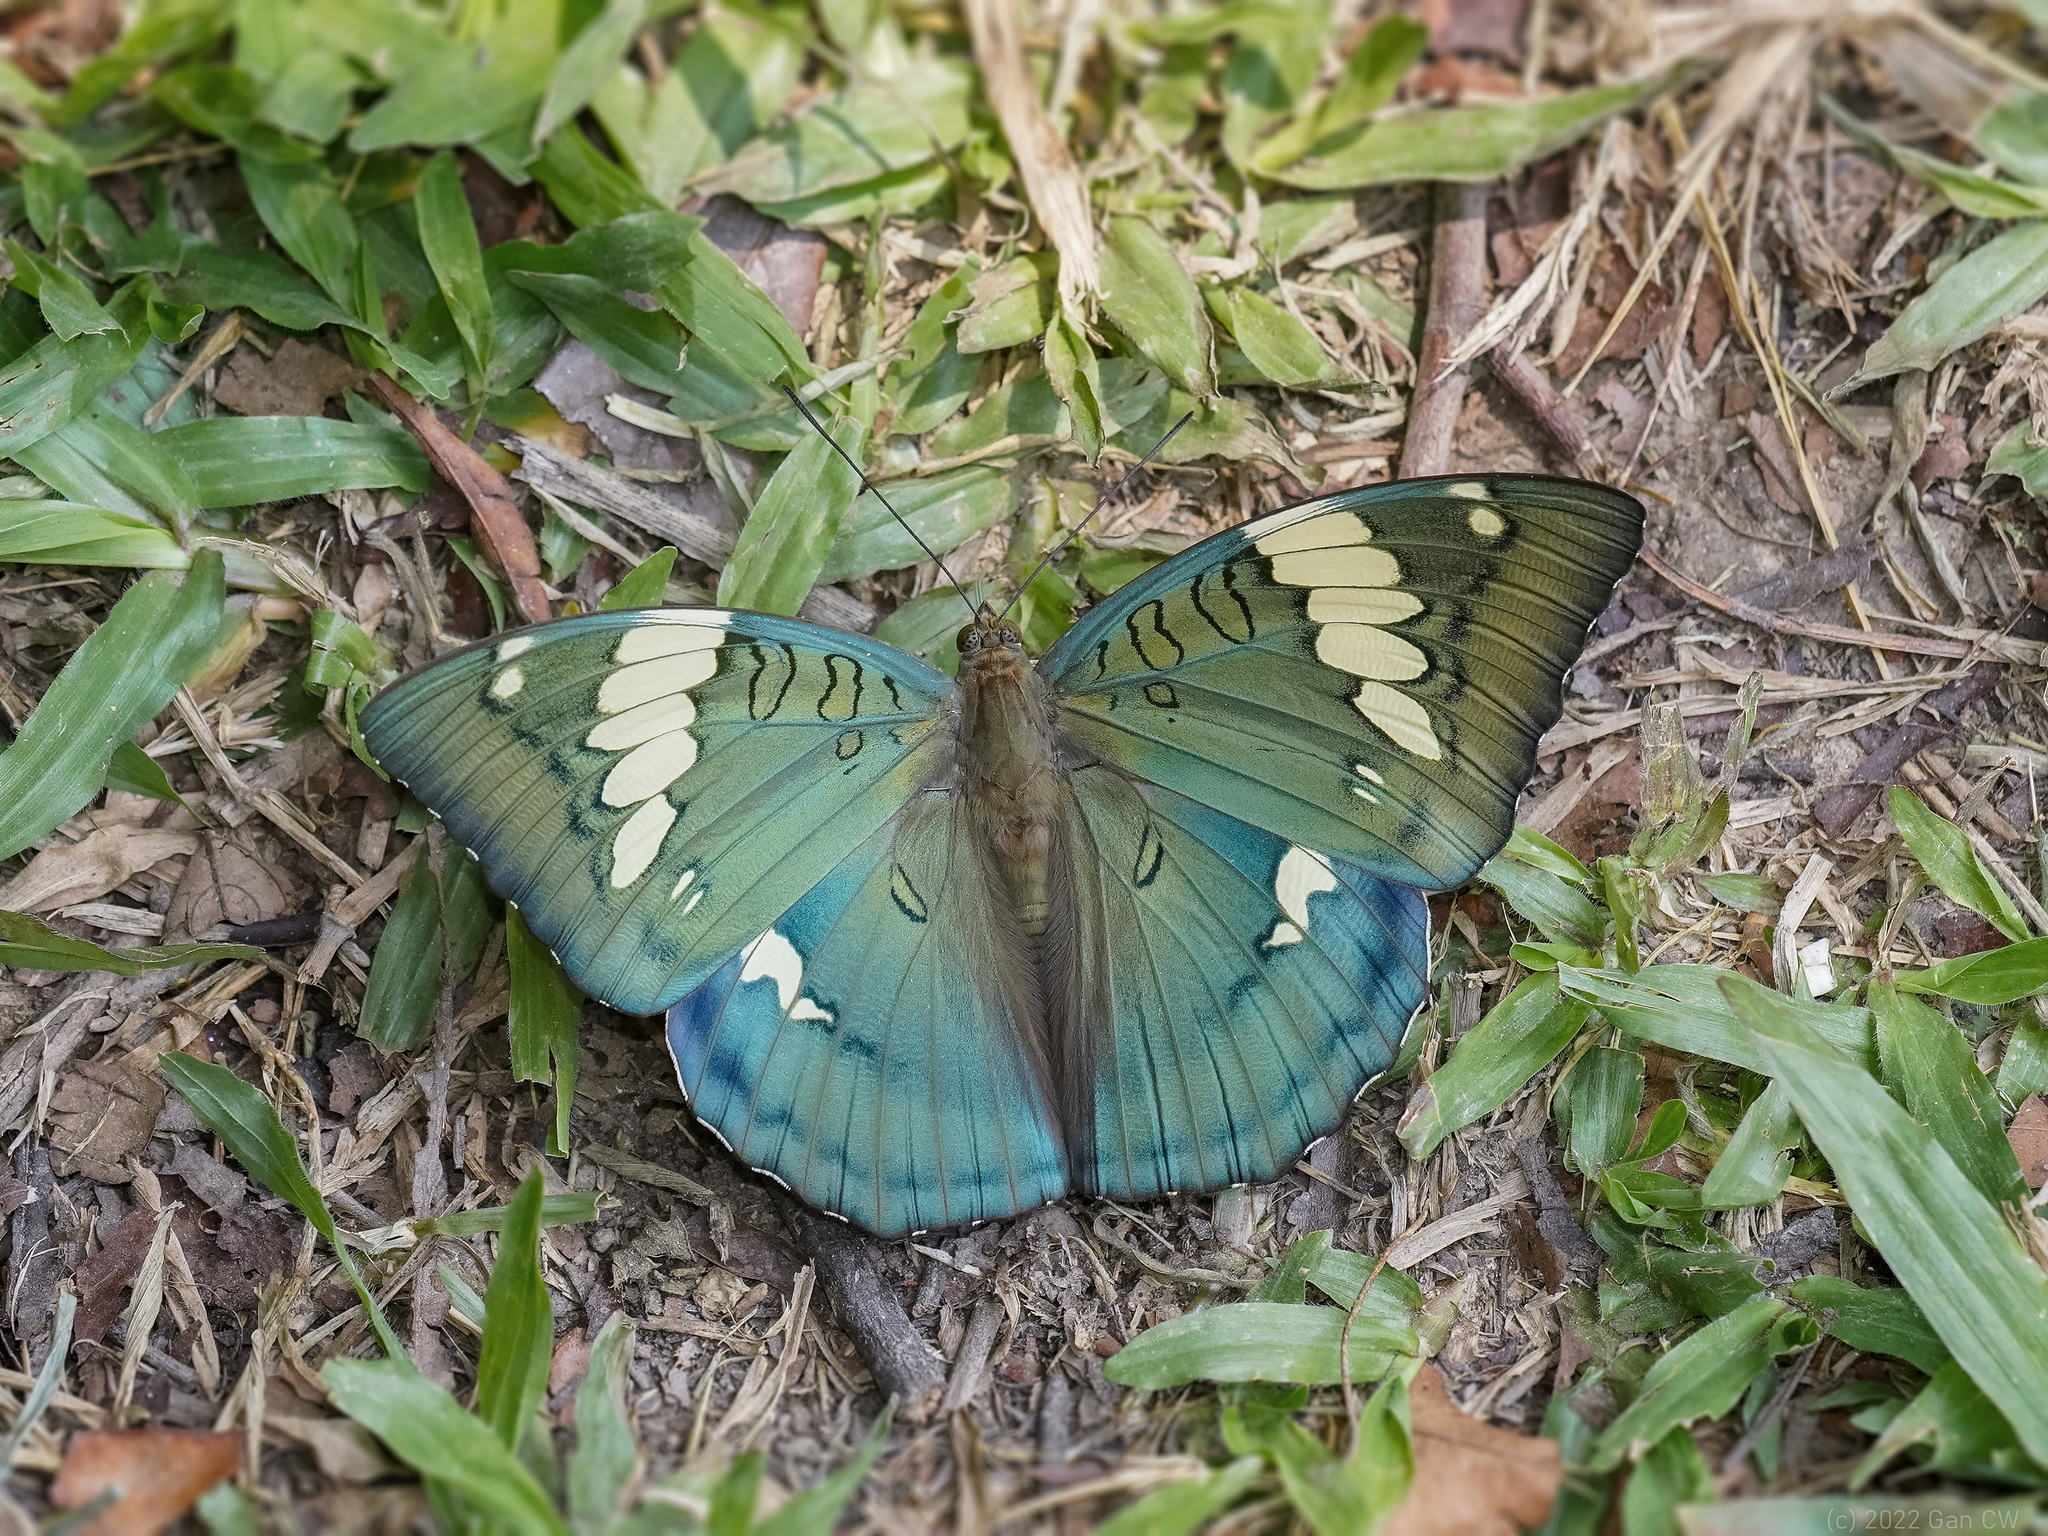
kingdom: Animalia
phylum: Arthropoda
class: Insecta
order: Lepidoptera
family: Nymphalidae
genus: Euthalia
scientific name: Euthalia patala
